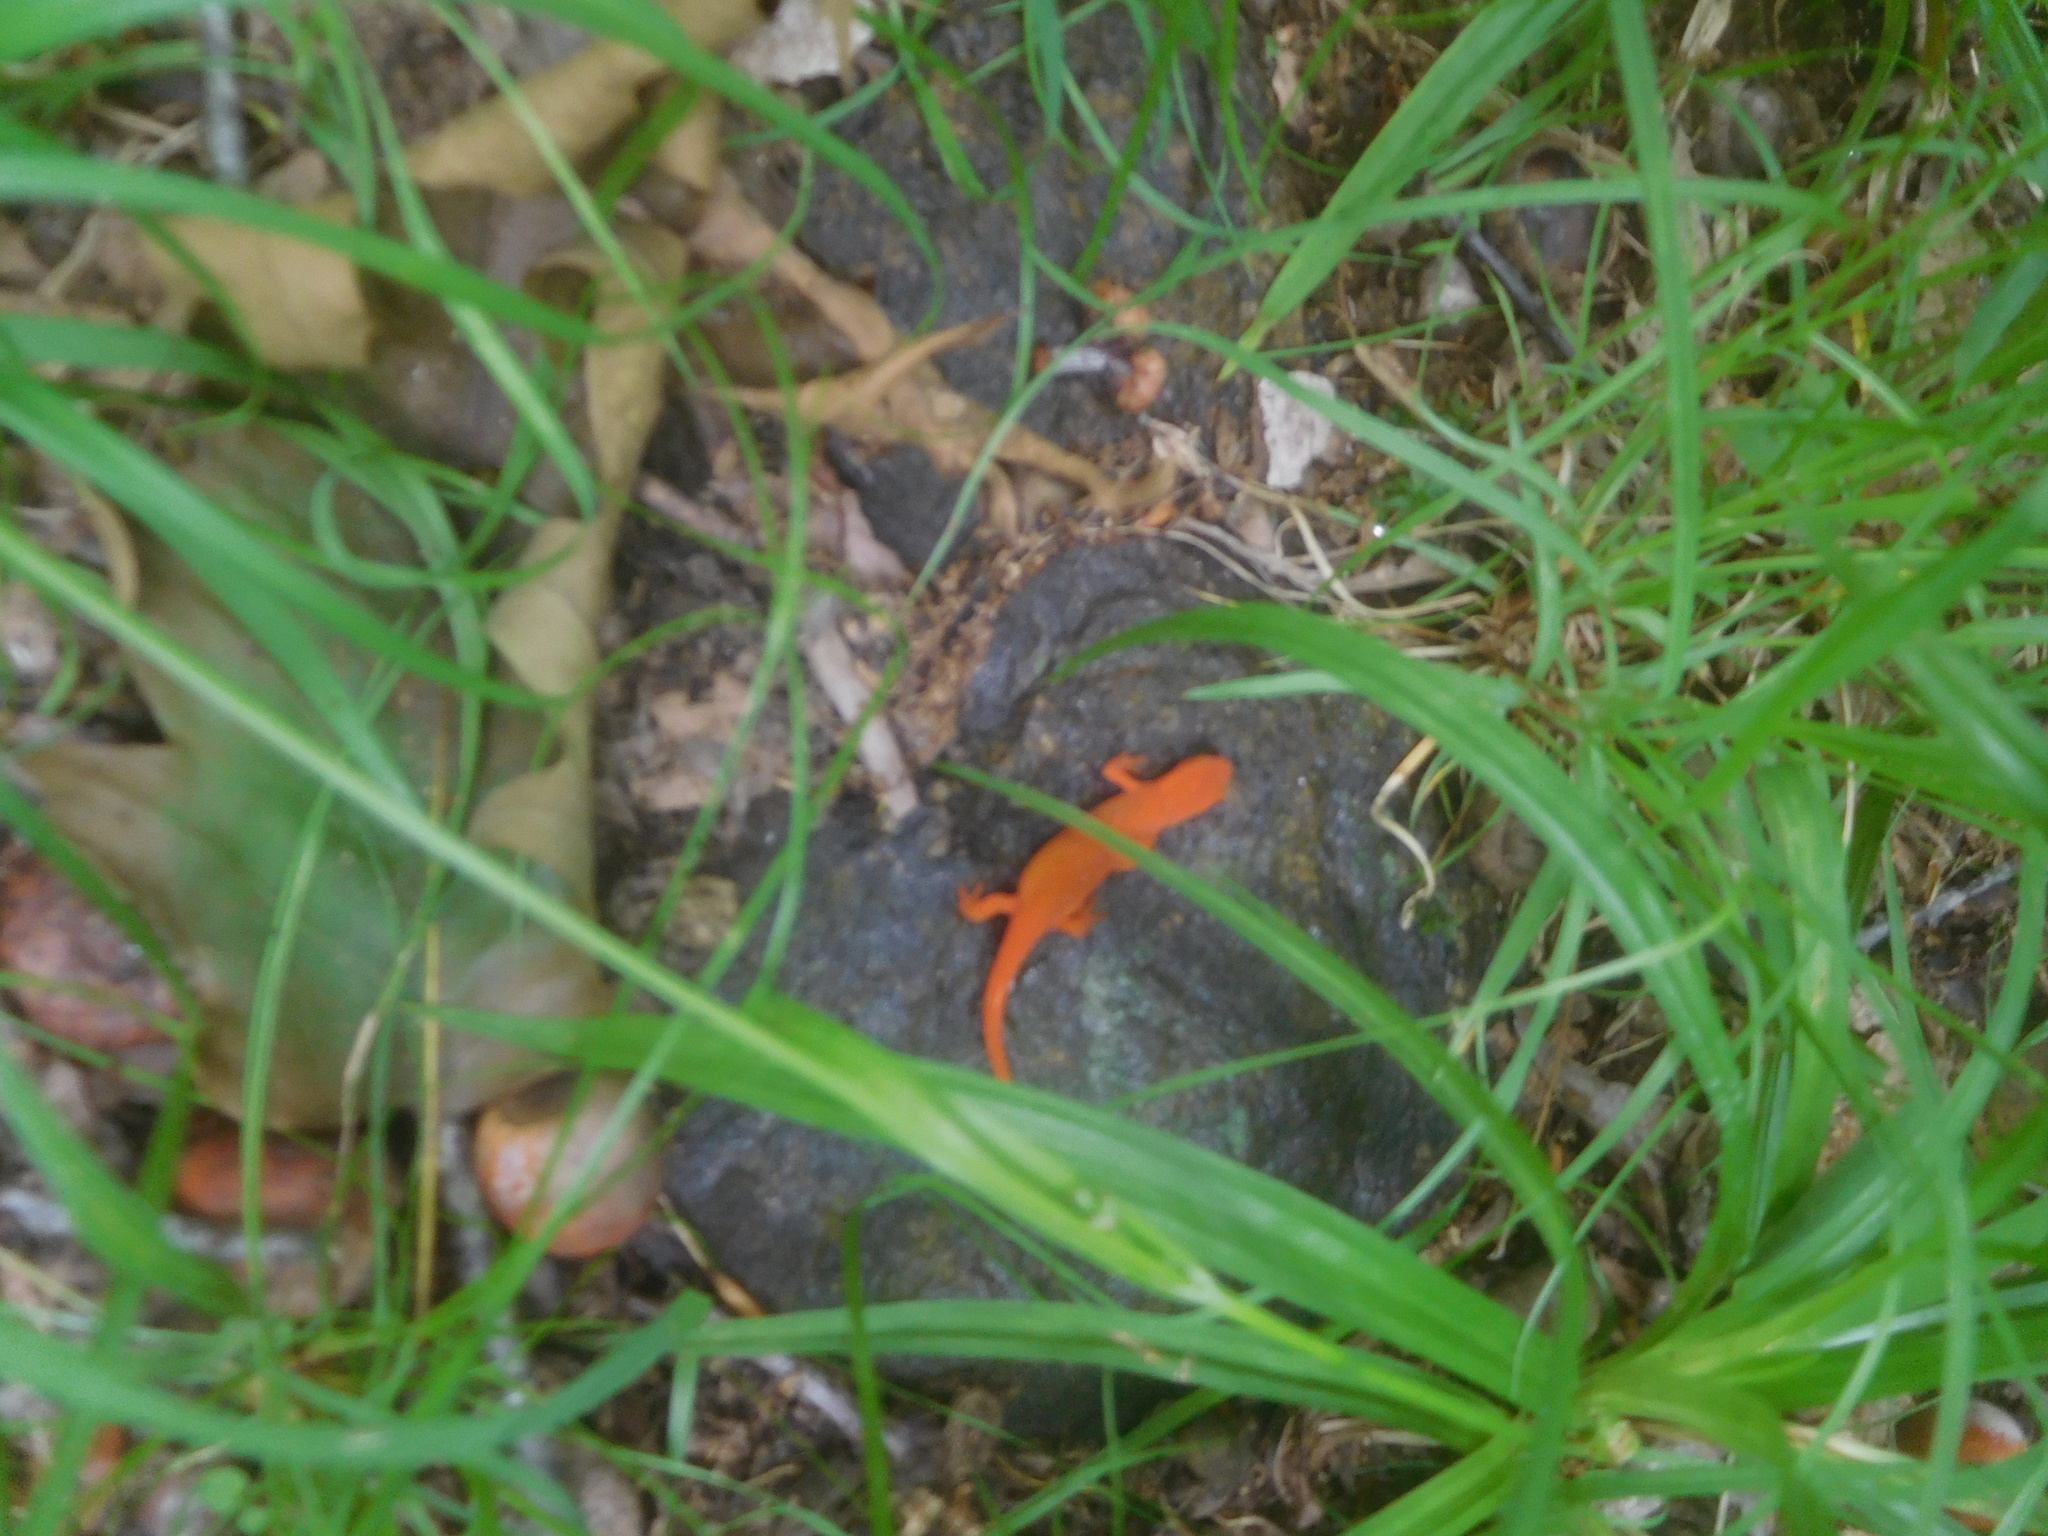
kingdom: Animalia
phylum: Chordata
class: Amphibia
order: Caudata
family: Salamandridae
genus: Notophthalmus
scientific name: Notophthalmus viridescens
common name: Eastern newt
